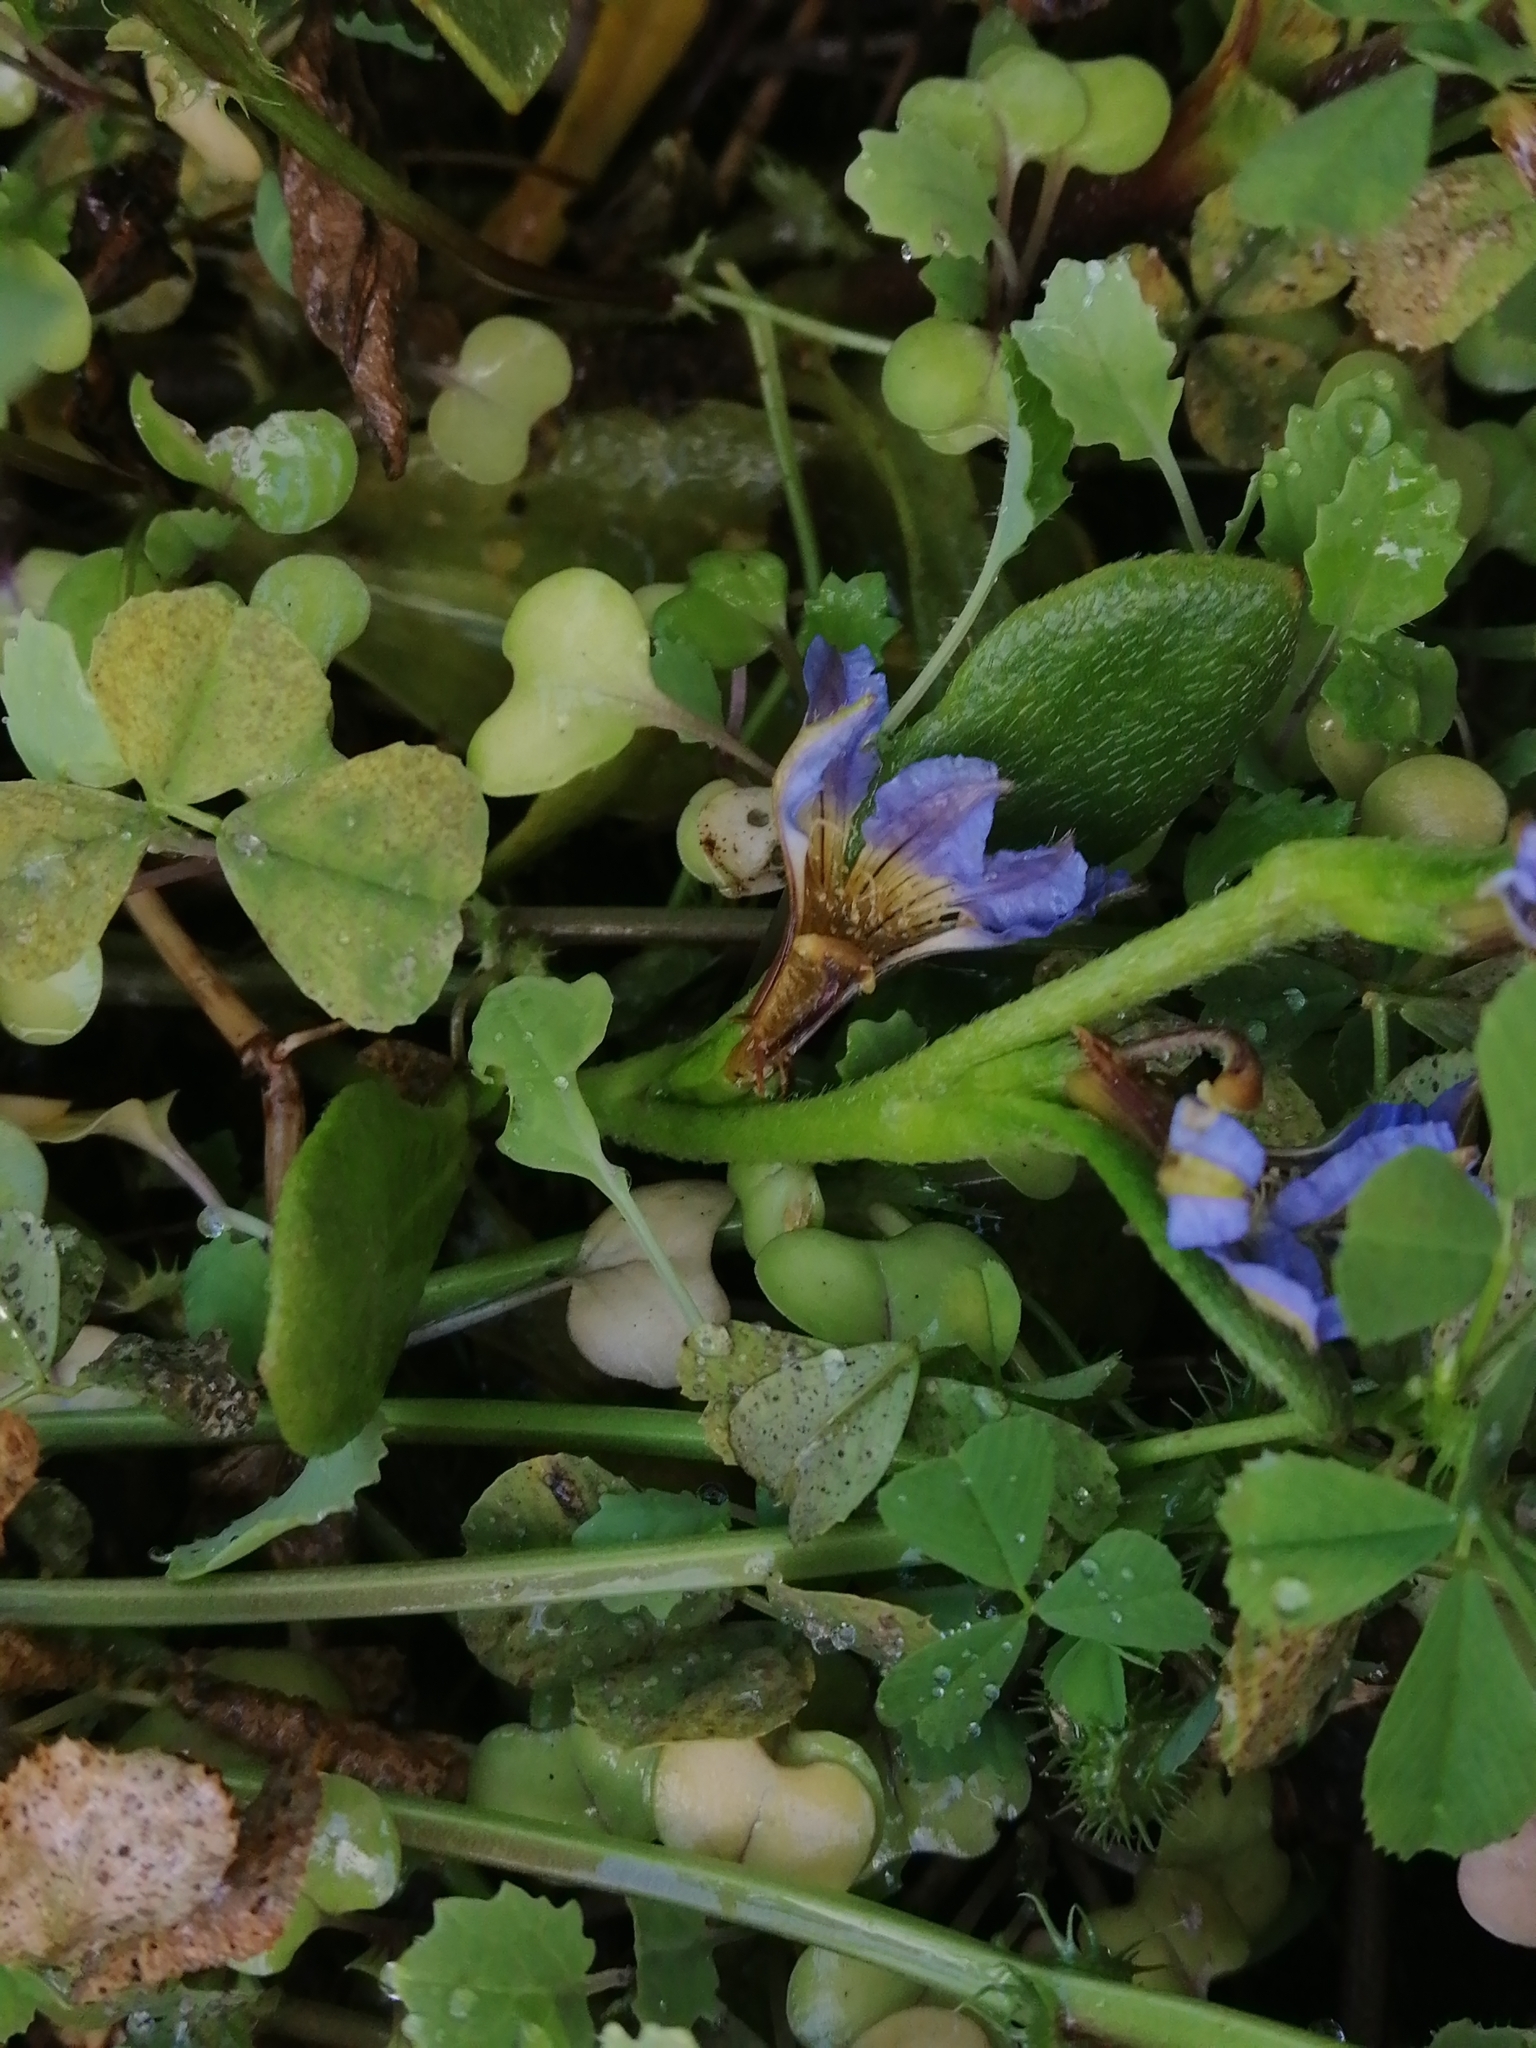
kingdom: Plantae
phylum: Tracheophyta
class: Magnoliopsida
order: Asterales
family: Goodeniaceae
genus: Scaevola
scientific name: Scaevola calendulacea
